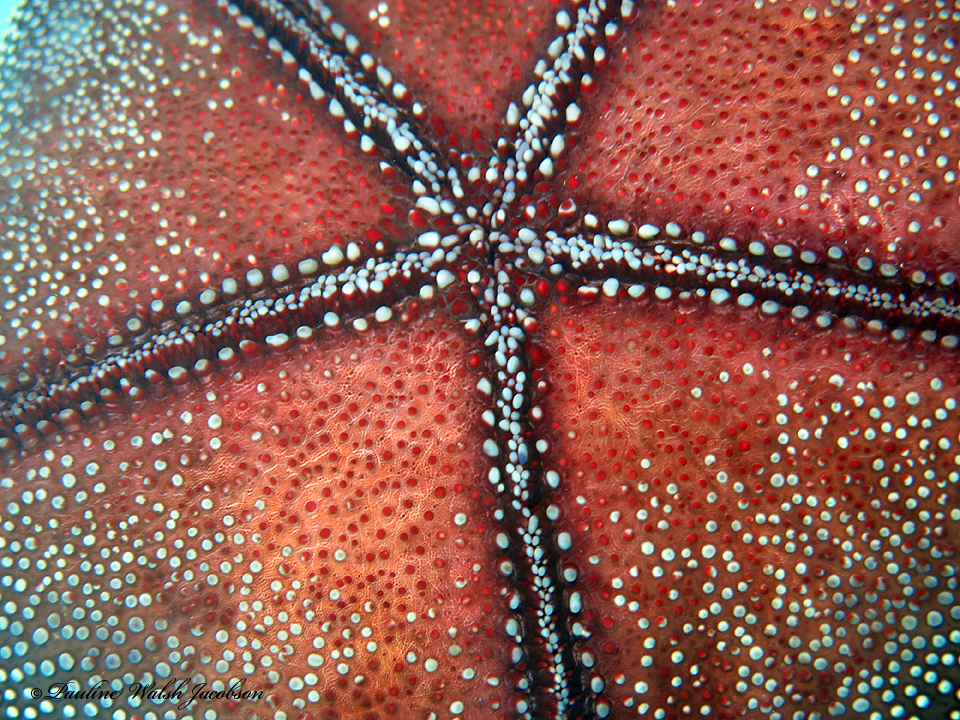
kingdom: Animalia
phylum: Echinodermata
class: Asteroidea
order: Valvatida
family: Oreasteridae
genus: Culcita
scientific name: Culcita novaeguineae
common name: Cushion star
